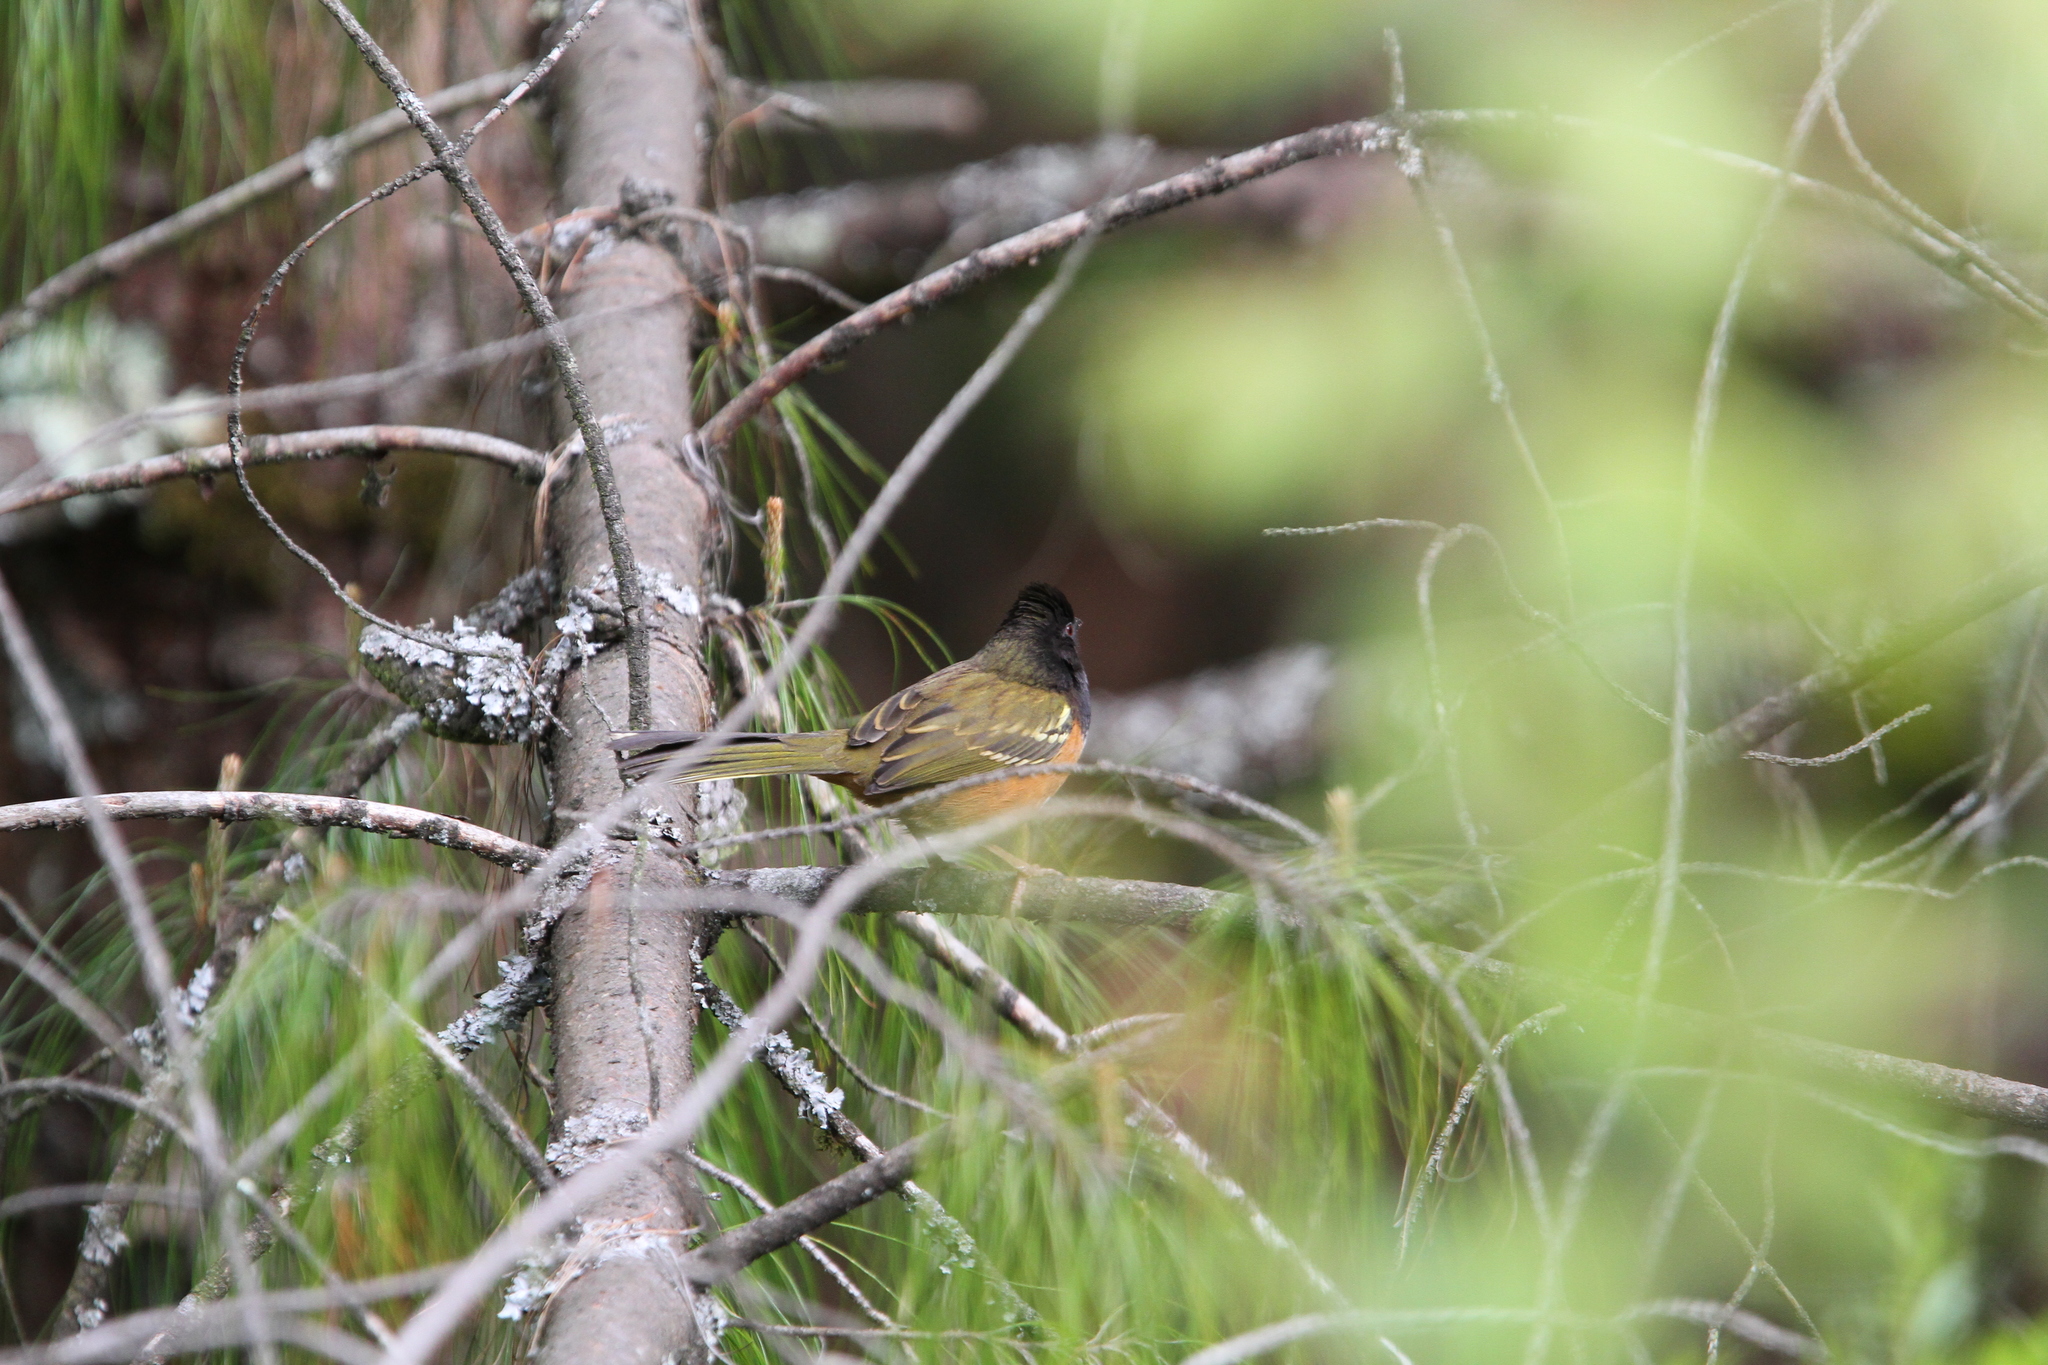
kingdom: Animalia
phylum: Chordata
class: Aves
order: Passeriformes
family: Passerellidae
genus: Pipilo
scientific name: Pipilo maculatus
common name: Spotted towhee
